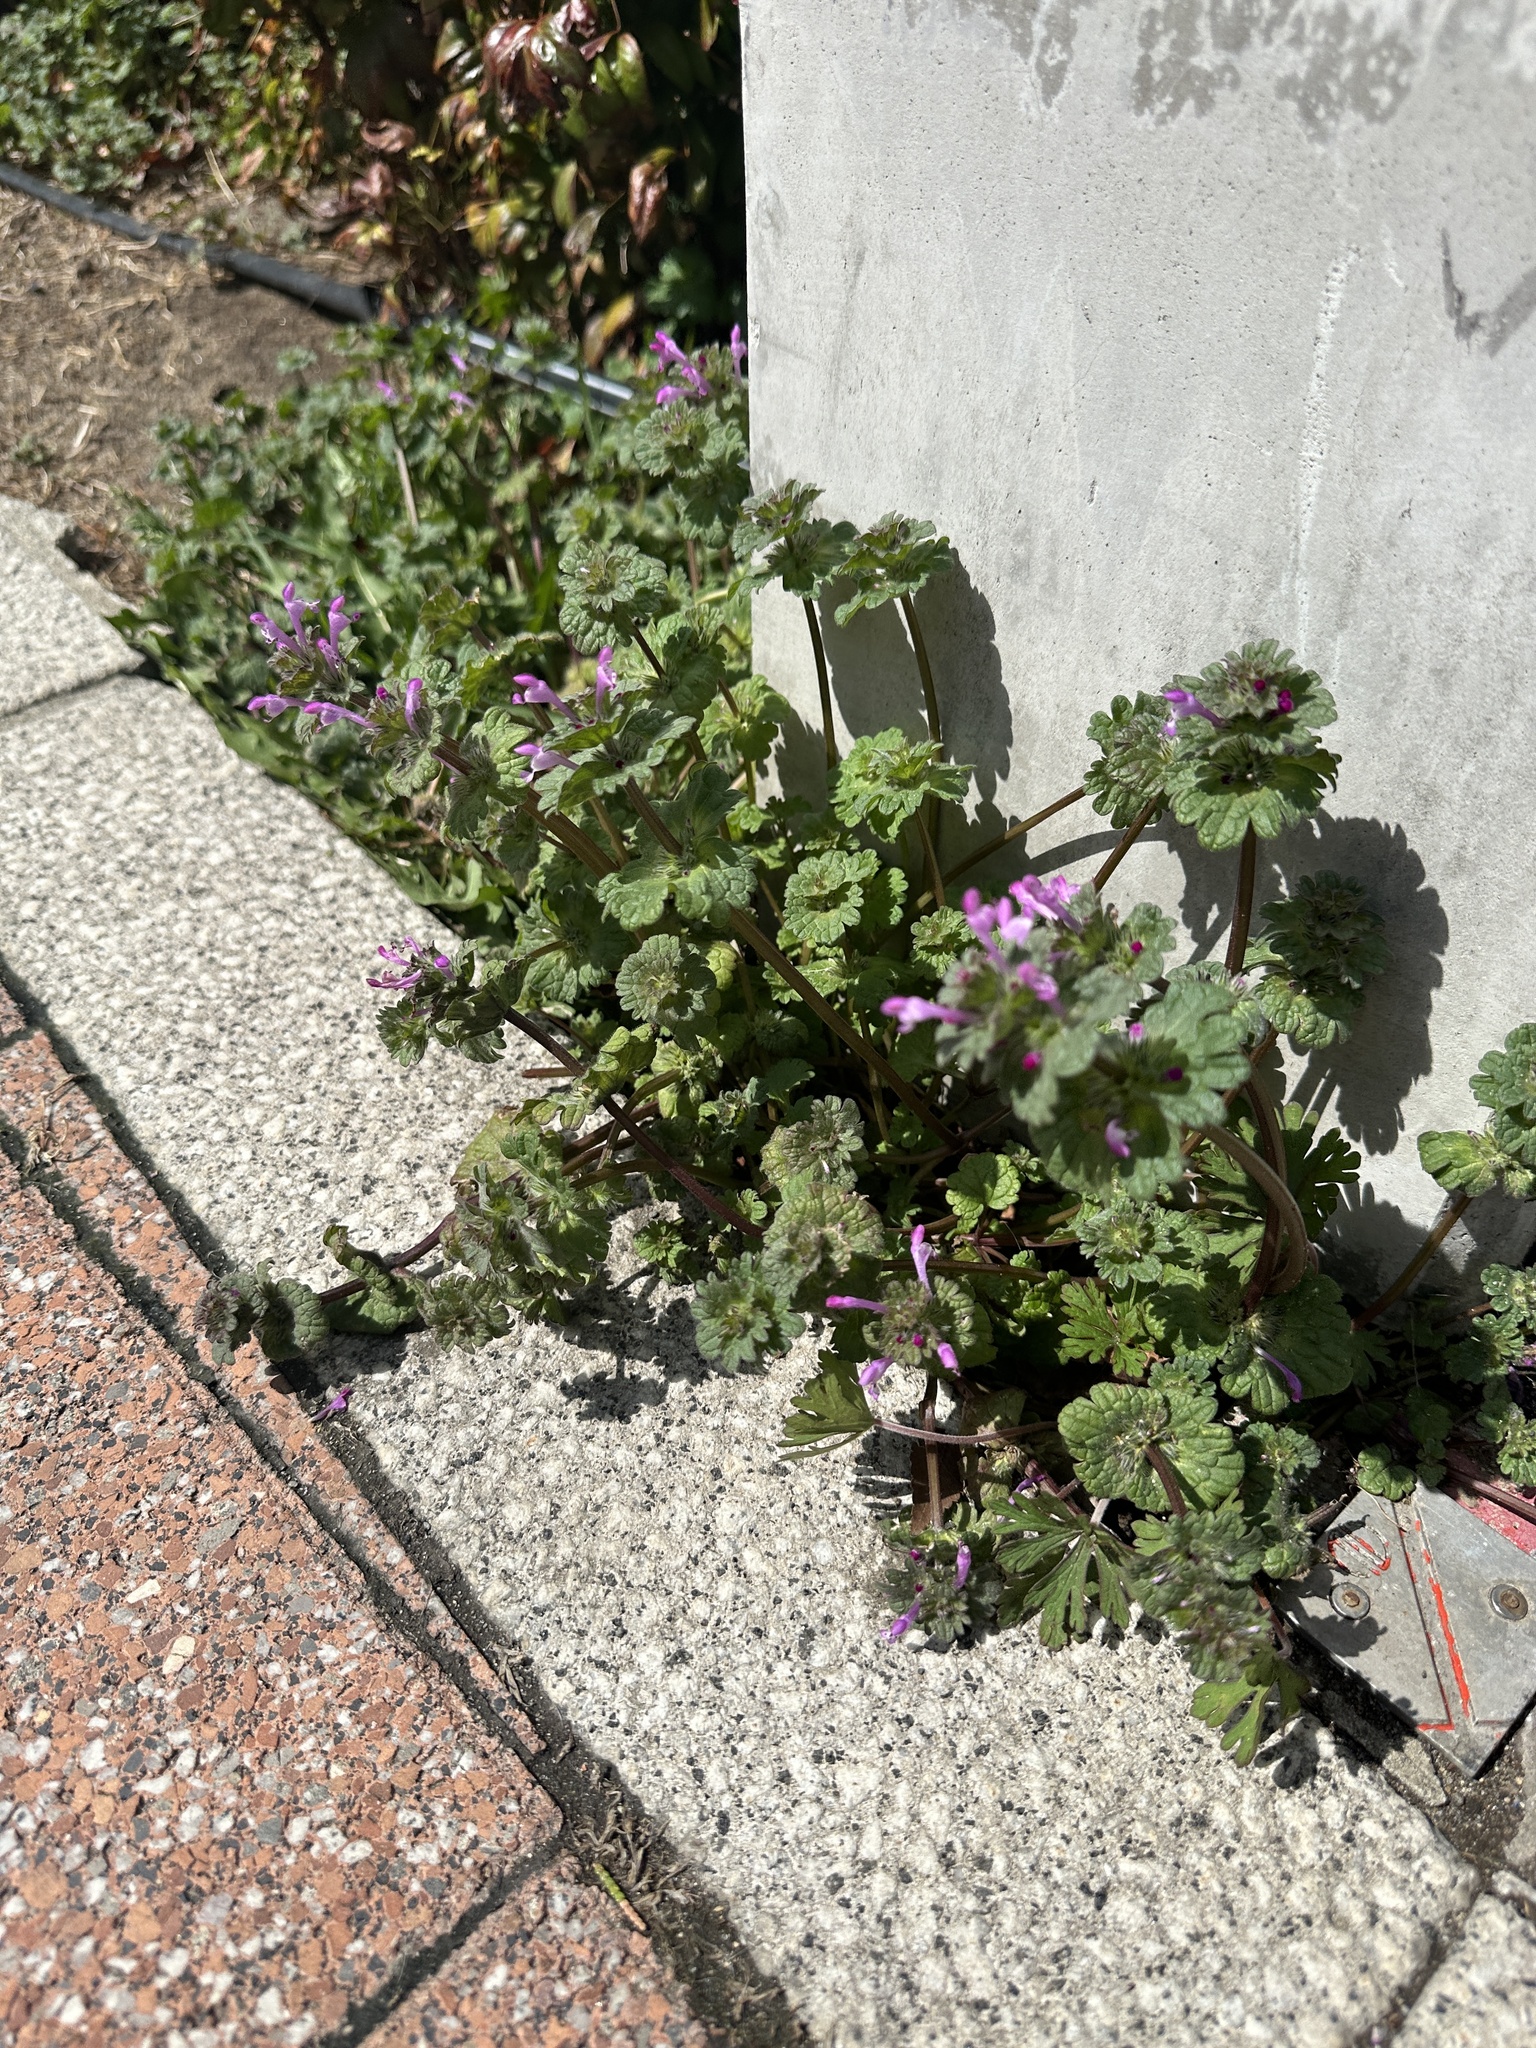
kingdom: Plantae
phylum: Tracheophyta
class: Magnoliopsida
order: Lamiales
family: Lamiaceae
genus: Lamium
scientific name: Lamium amplexicaule
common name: Henbit dead-nettle
